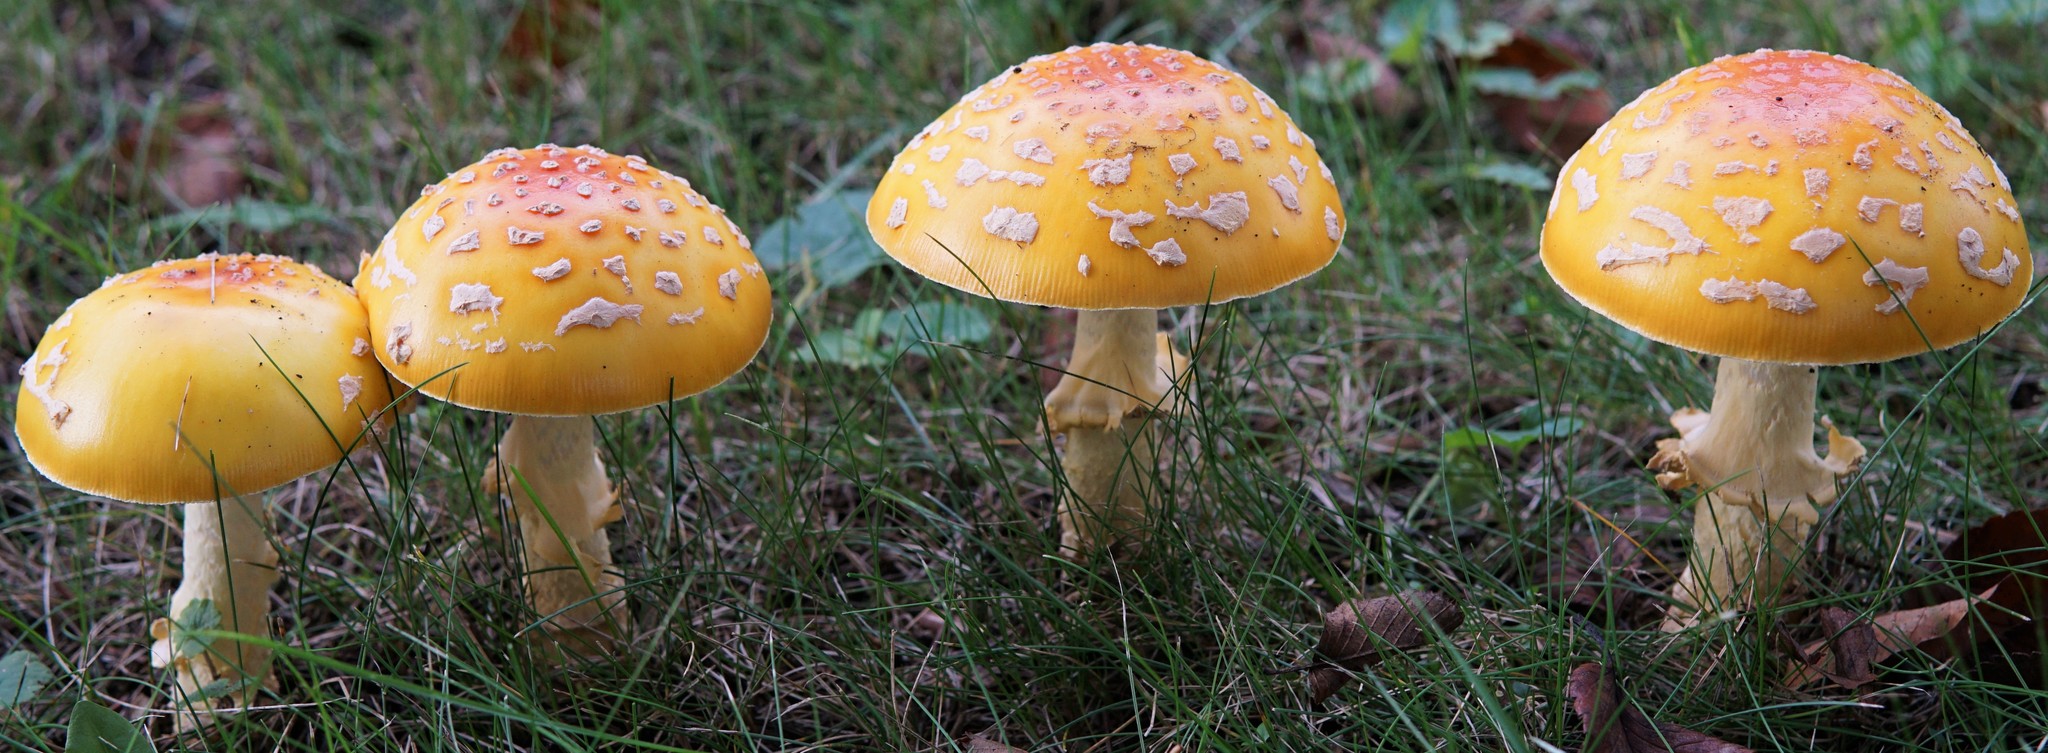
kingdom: Fungi
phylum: Basidiomycota
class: Agaricomycetes
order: Agaricales
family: Amanitaceae
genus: Amanita
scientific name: Amanita muscaria
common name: Fly agaric
